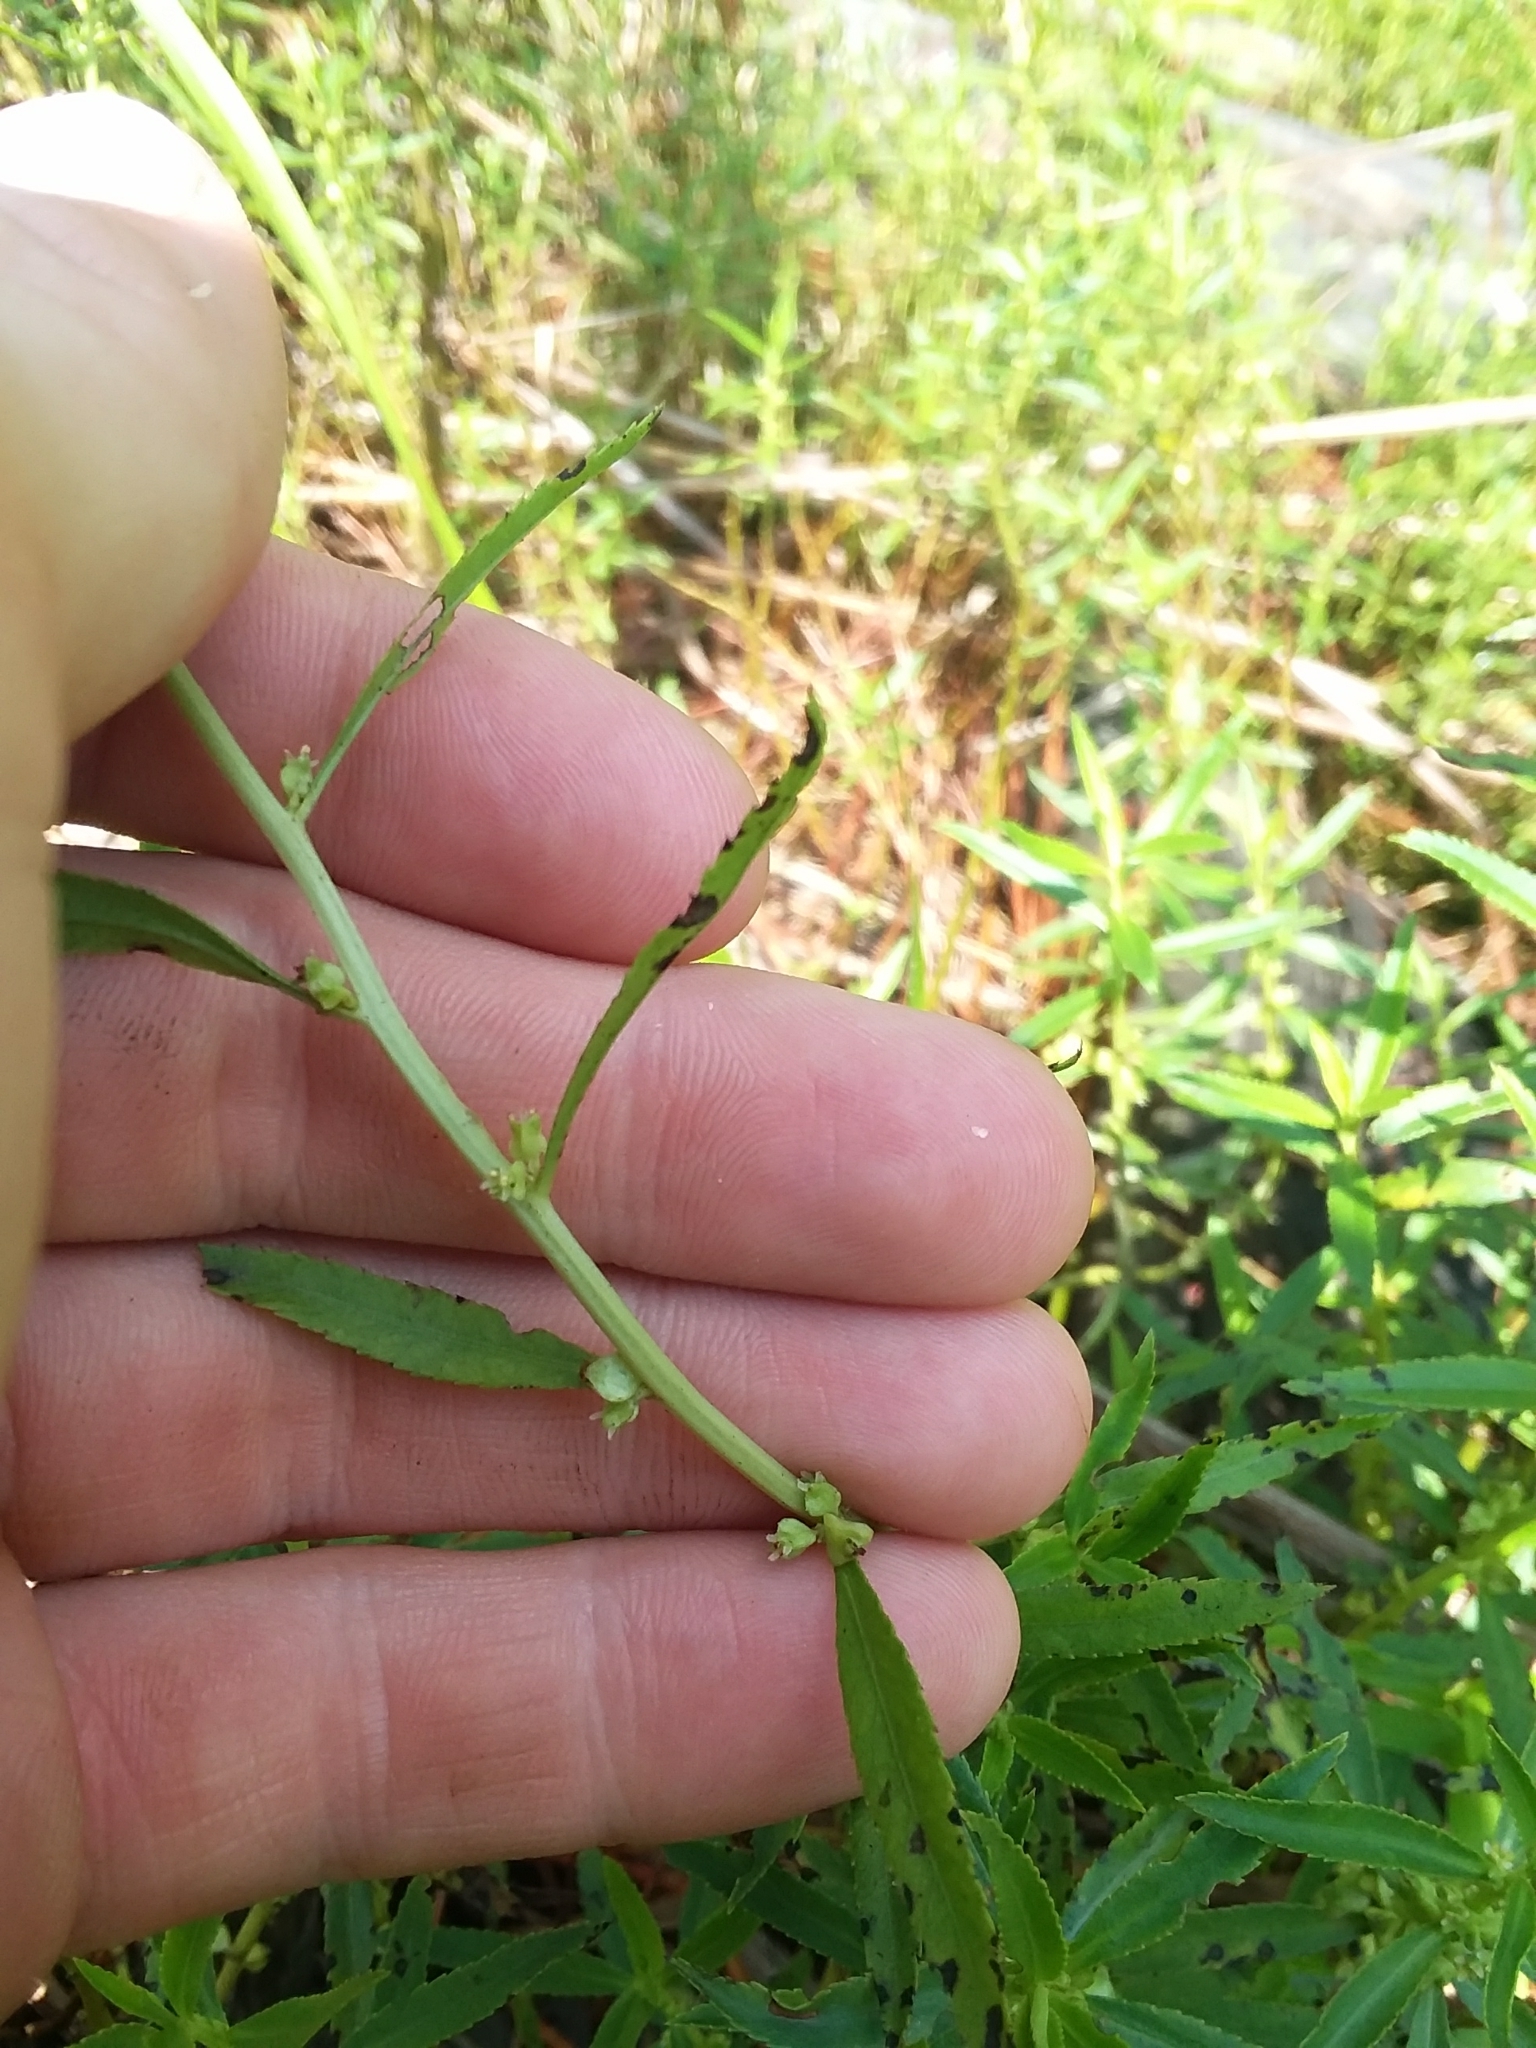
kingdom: Plantae
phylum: Tracheophyta
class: Magnoliopsida
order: Saxifragales
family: Haloragaceae
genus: Proserpinaca
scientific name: Proserpinaca palustris
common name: Marsh mermaidweed
